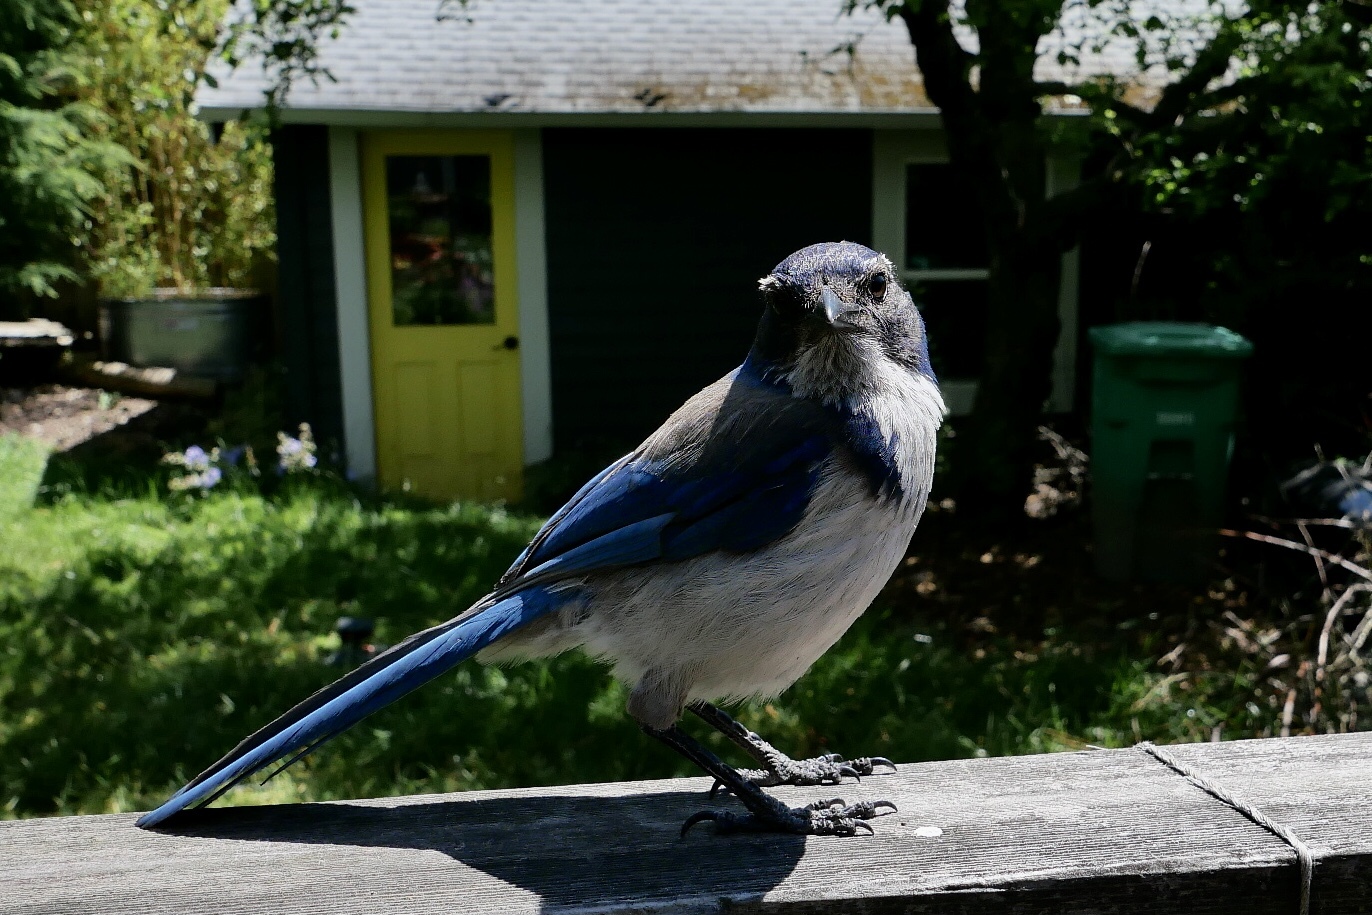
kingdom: Animalia
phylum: Chordata
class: Aves
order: Passeriformes
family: Corvidae
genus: Aphelocoma
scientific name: Aphelocoma californica
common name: California scrub-jay
